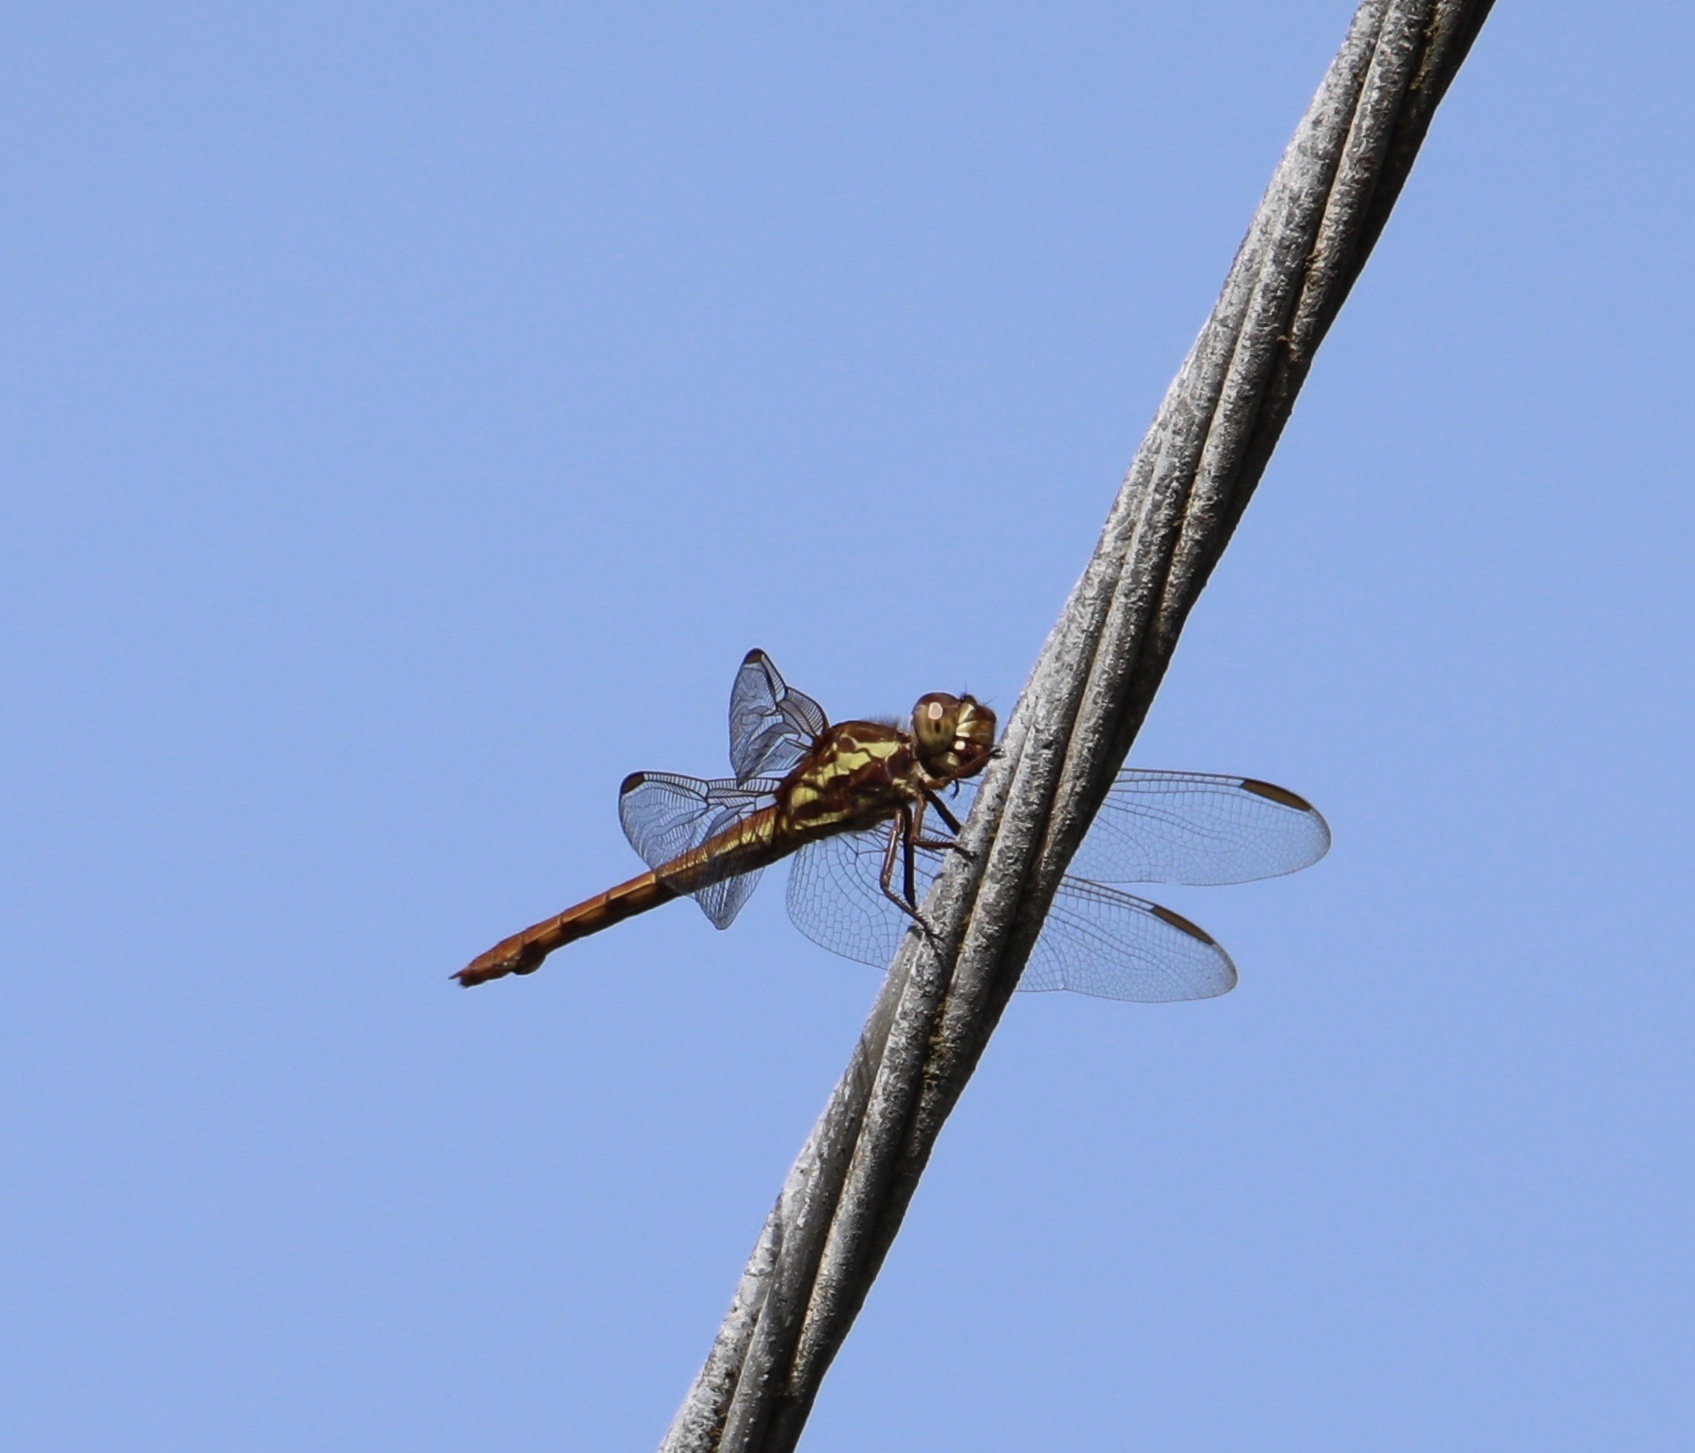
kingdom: Animalia
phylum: Arthropoda
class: Insecta
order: Odonata
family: Libellulidae
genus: Orthemis
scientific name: Orthemis aequilibris
